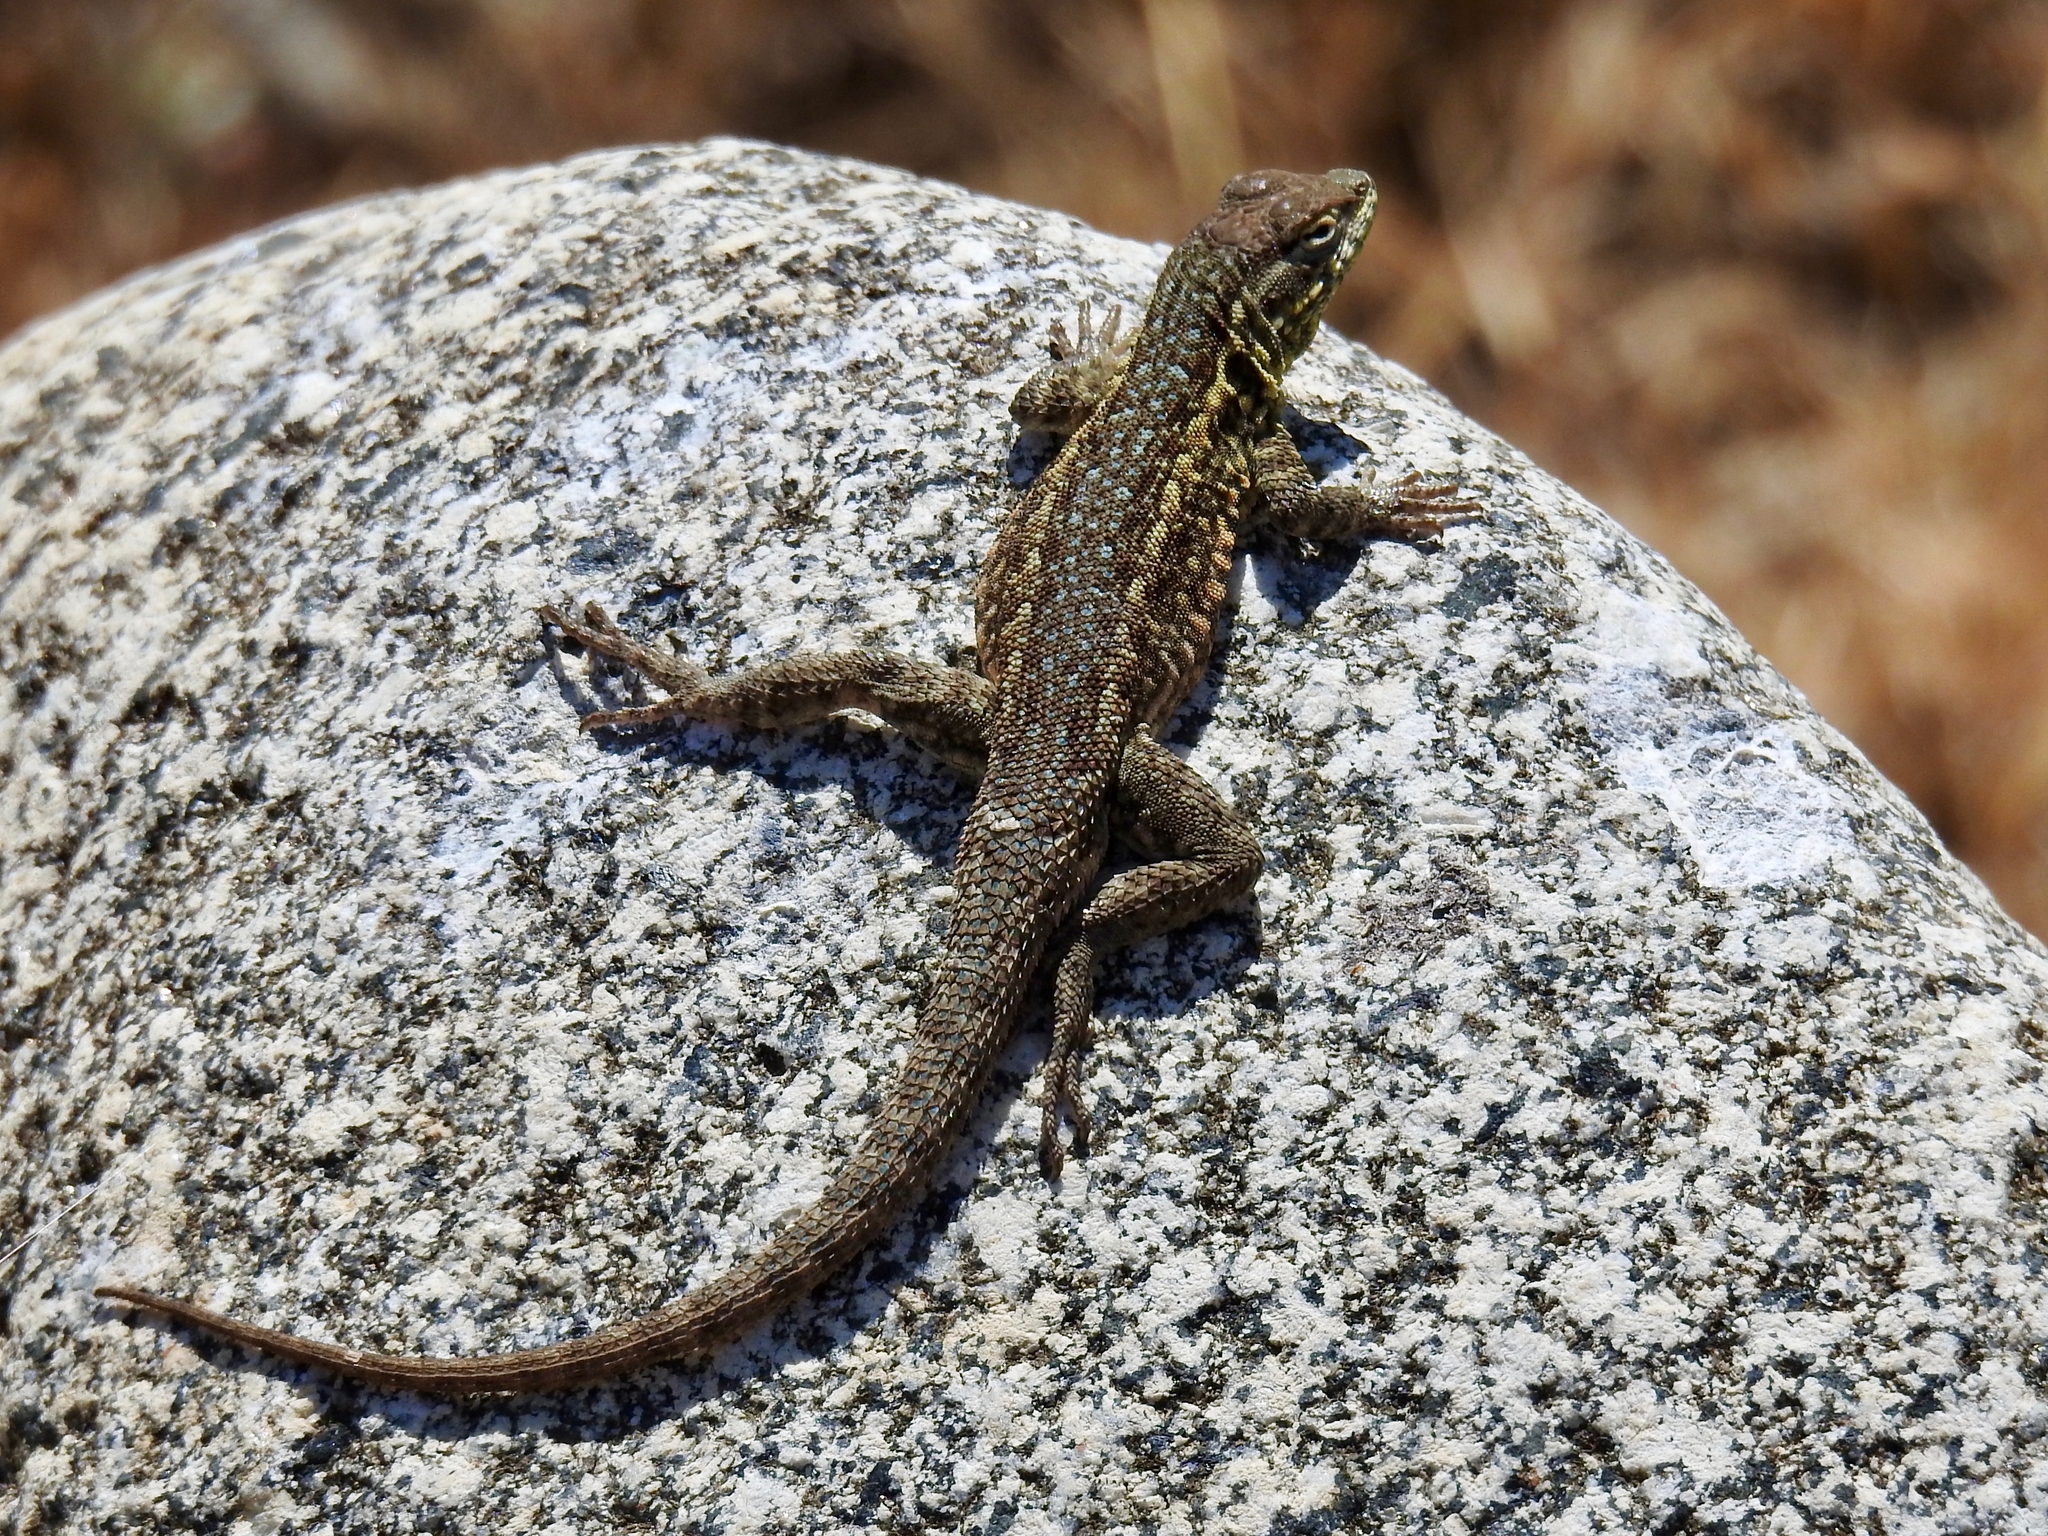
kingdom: Animalia
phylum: Chordata
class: Squamata
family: Phrynosomatidae
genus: Uta
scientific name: Uta stansburiana
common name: Side-blotched lizard
